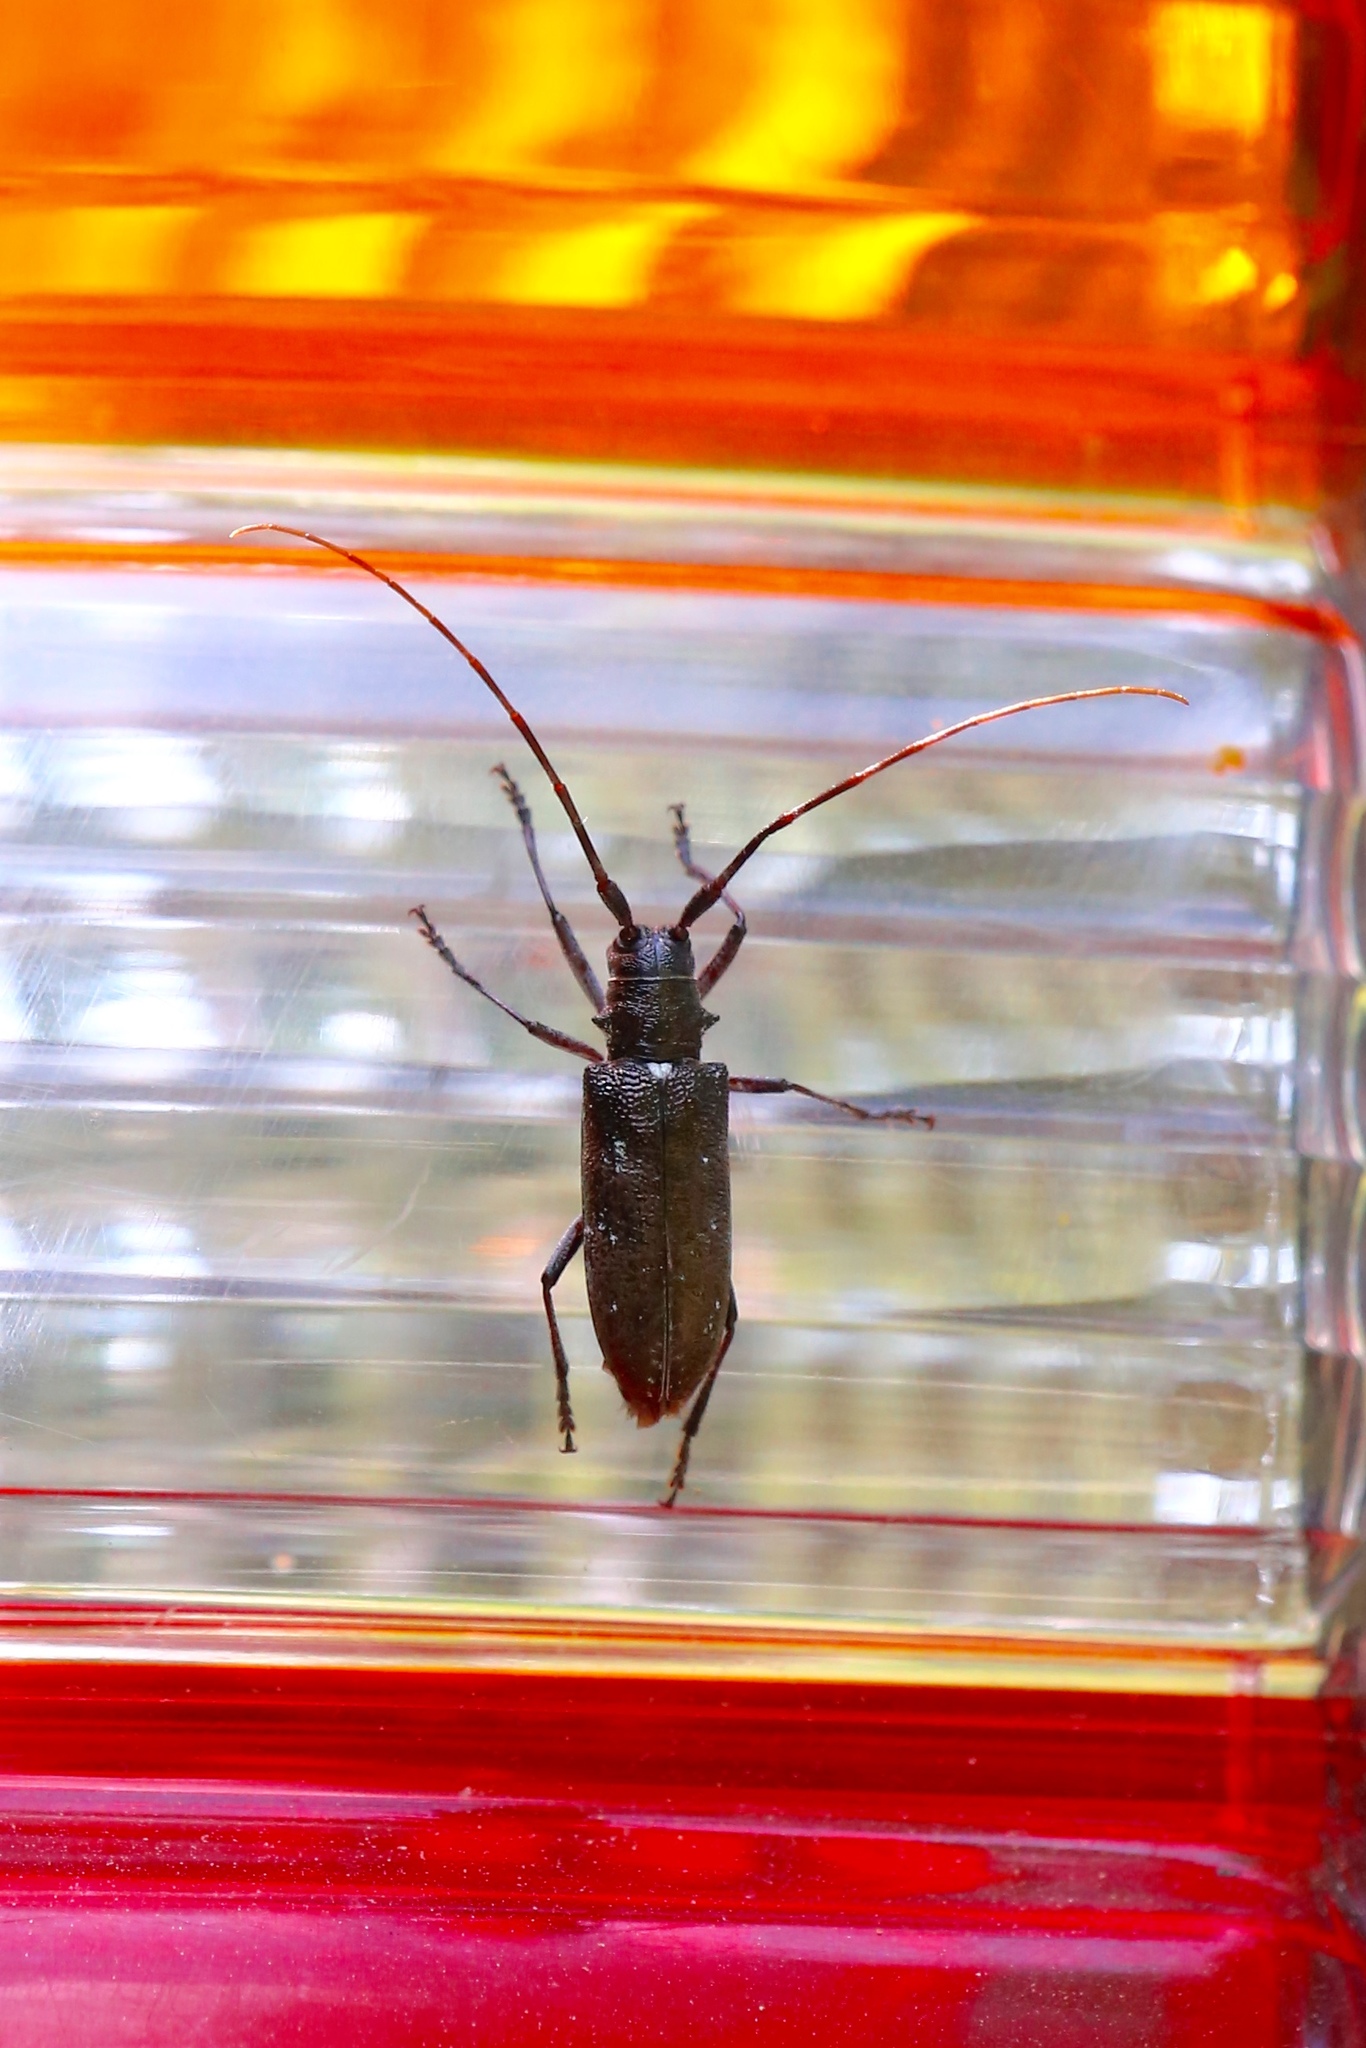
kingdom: Animalia
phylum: Arthropoda
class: Insecta
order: Coleoptera
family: Cerambycidae
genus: Monochamus
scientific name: Monochamus scutellatus
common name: White-spotted sawyer beetle
